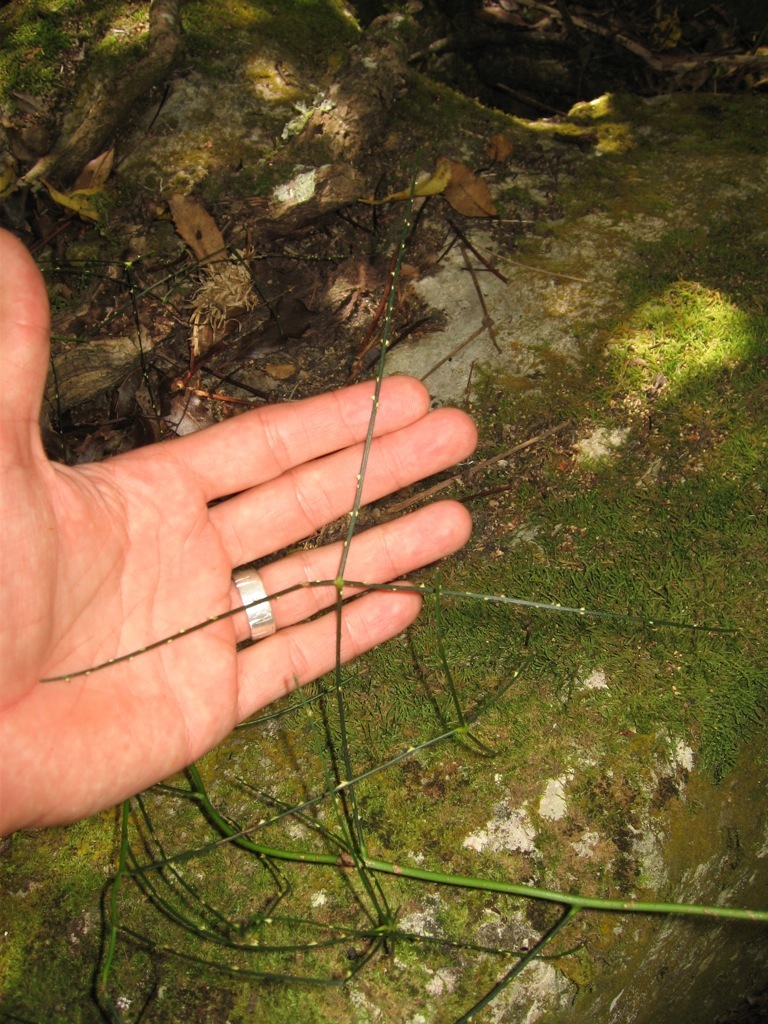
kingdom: Plantae
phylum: Tracheophyta
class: Magnoliopsida
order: Rosales
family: Rosaceae
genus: Rubus
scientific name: Rubus squarrosus
